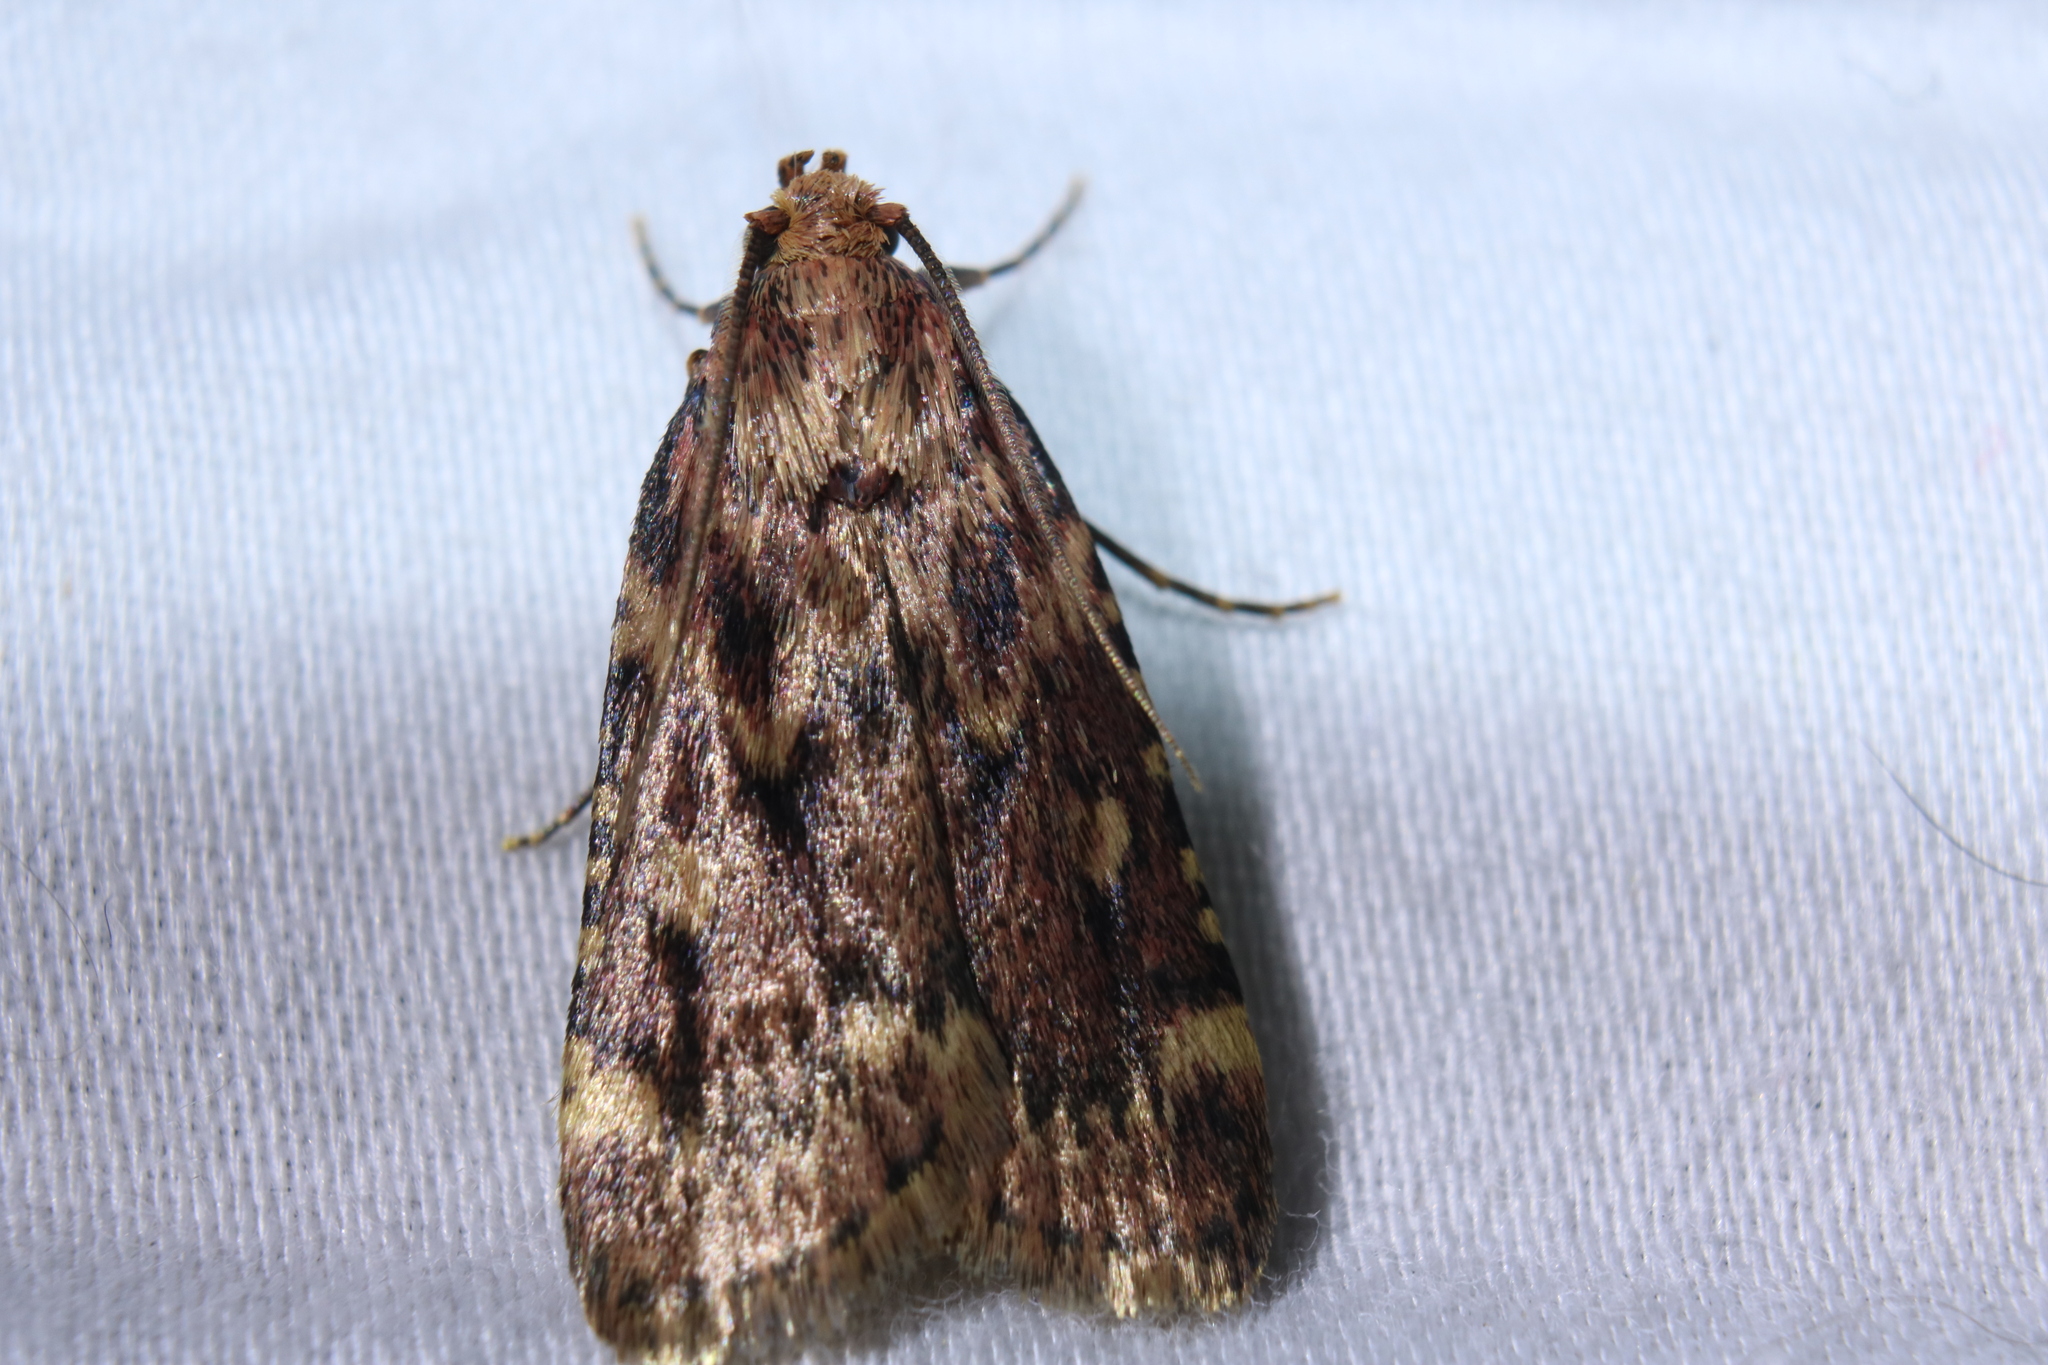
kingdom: Animalia
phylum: Arthropoda
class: Insecta
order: Lepidoptera
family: Pyralidae
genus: Aglossa
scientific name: Aglossa cuprina
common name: Grease moth
